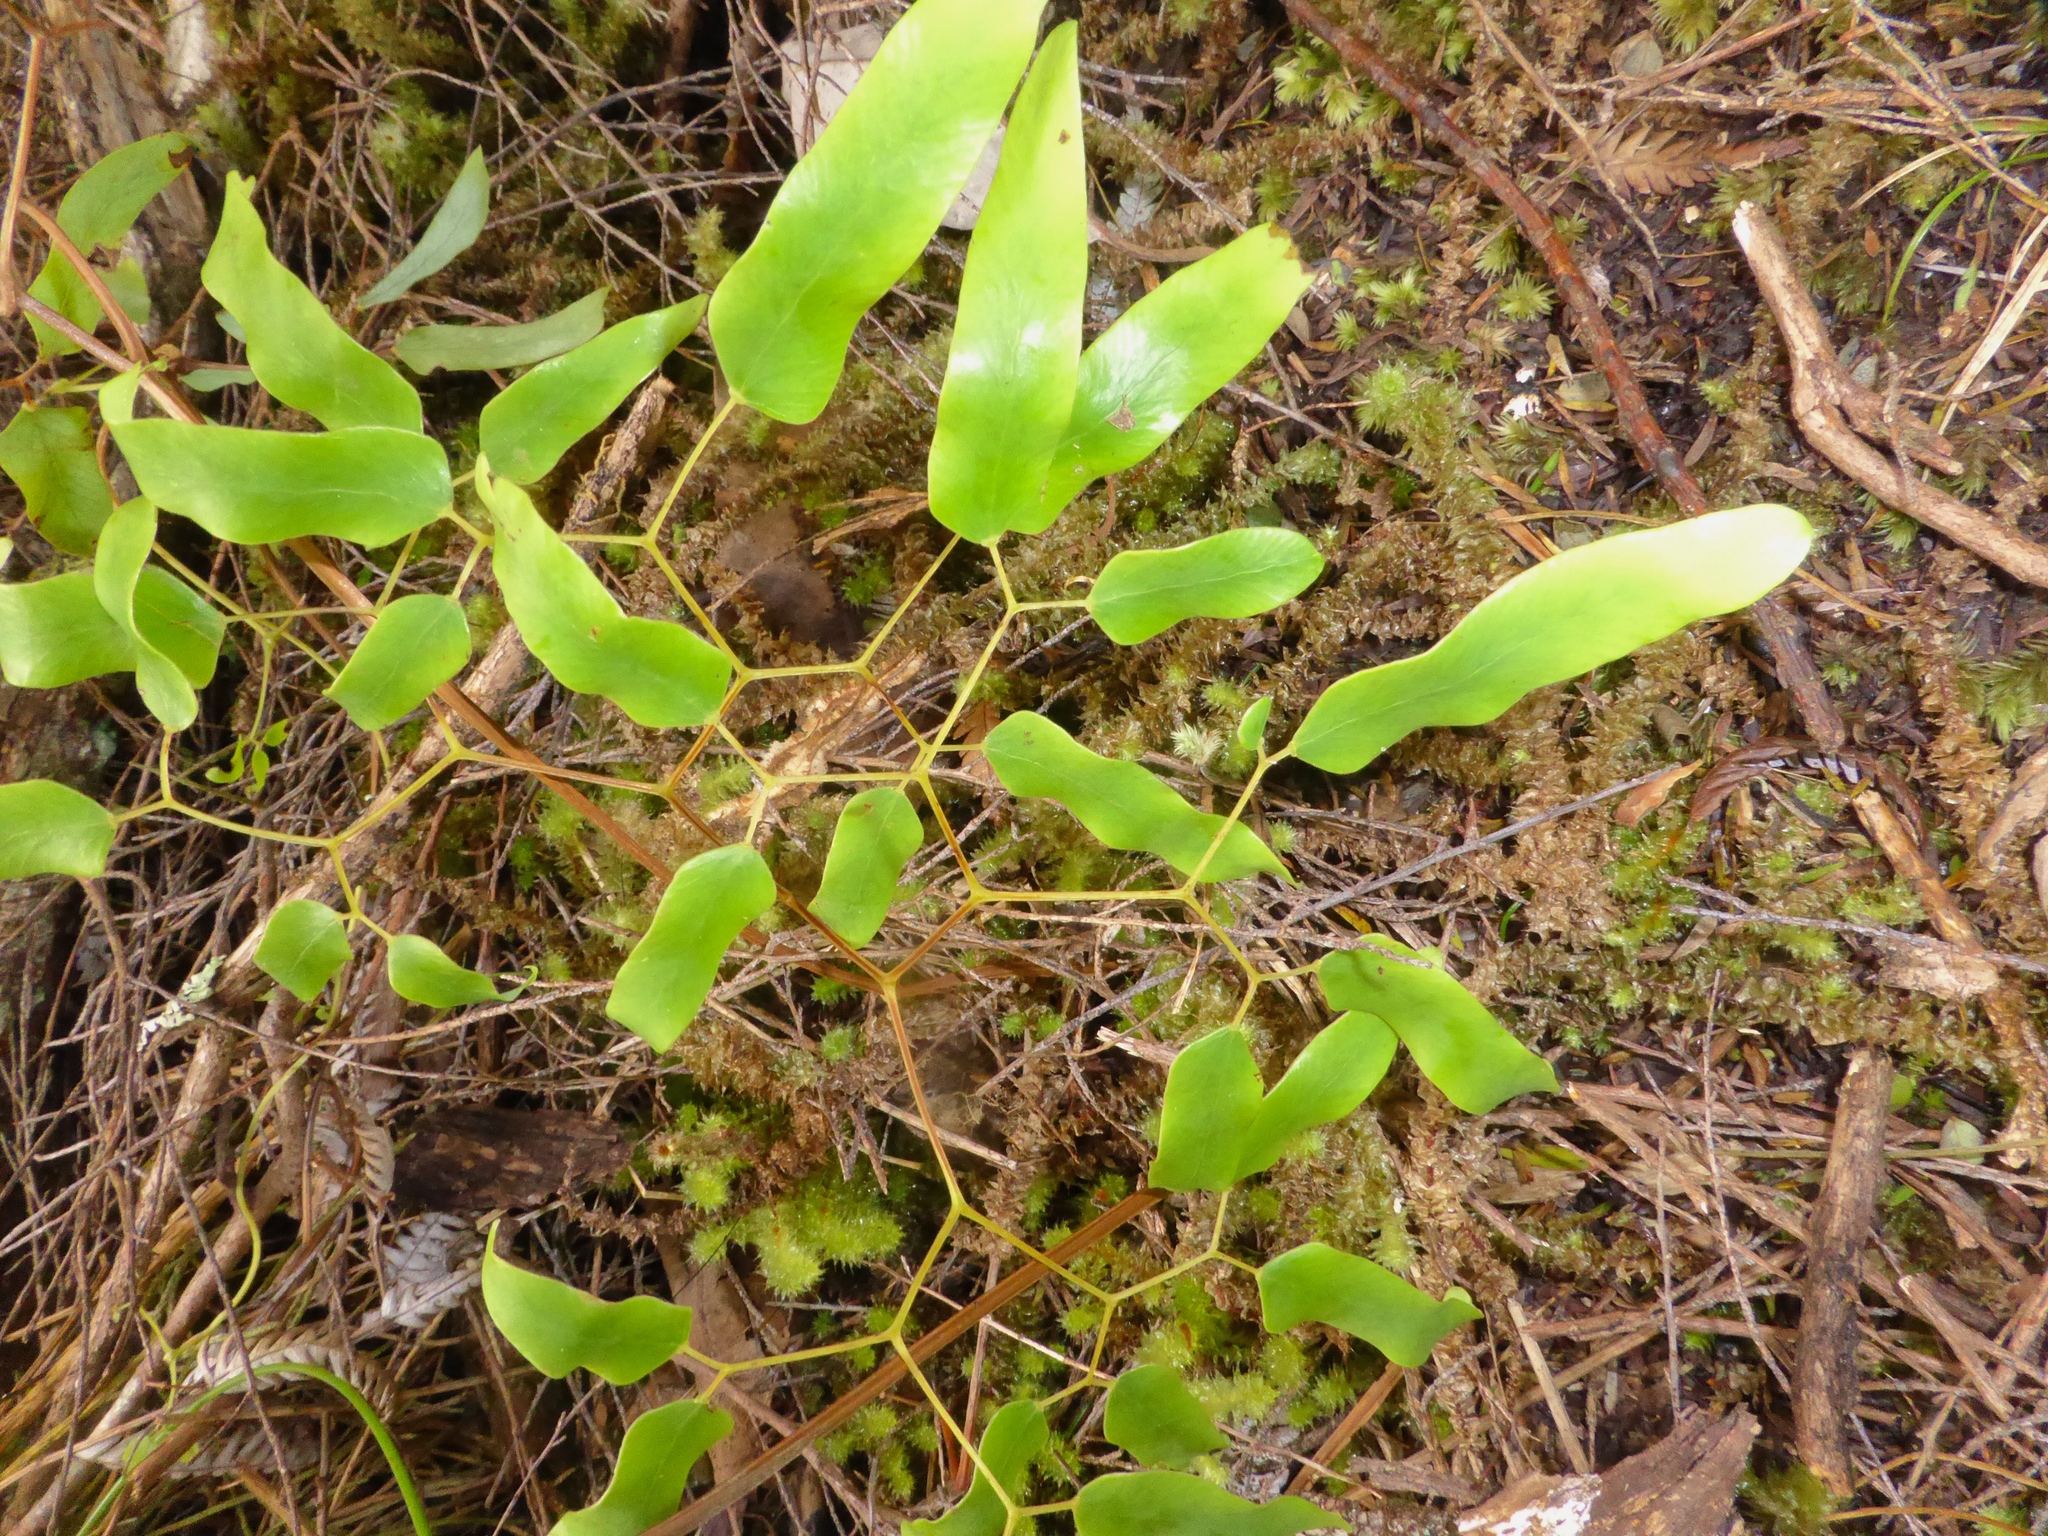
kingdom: Plantae
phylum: Tracheophyta
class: Polypodiopsida
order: Schizaeales
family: Lygodiaceae
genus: Lygodium
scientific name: Lygodium articulatum
